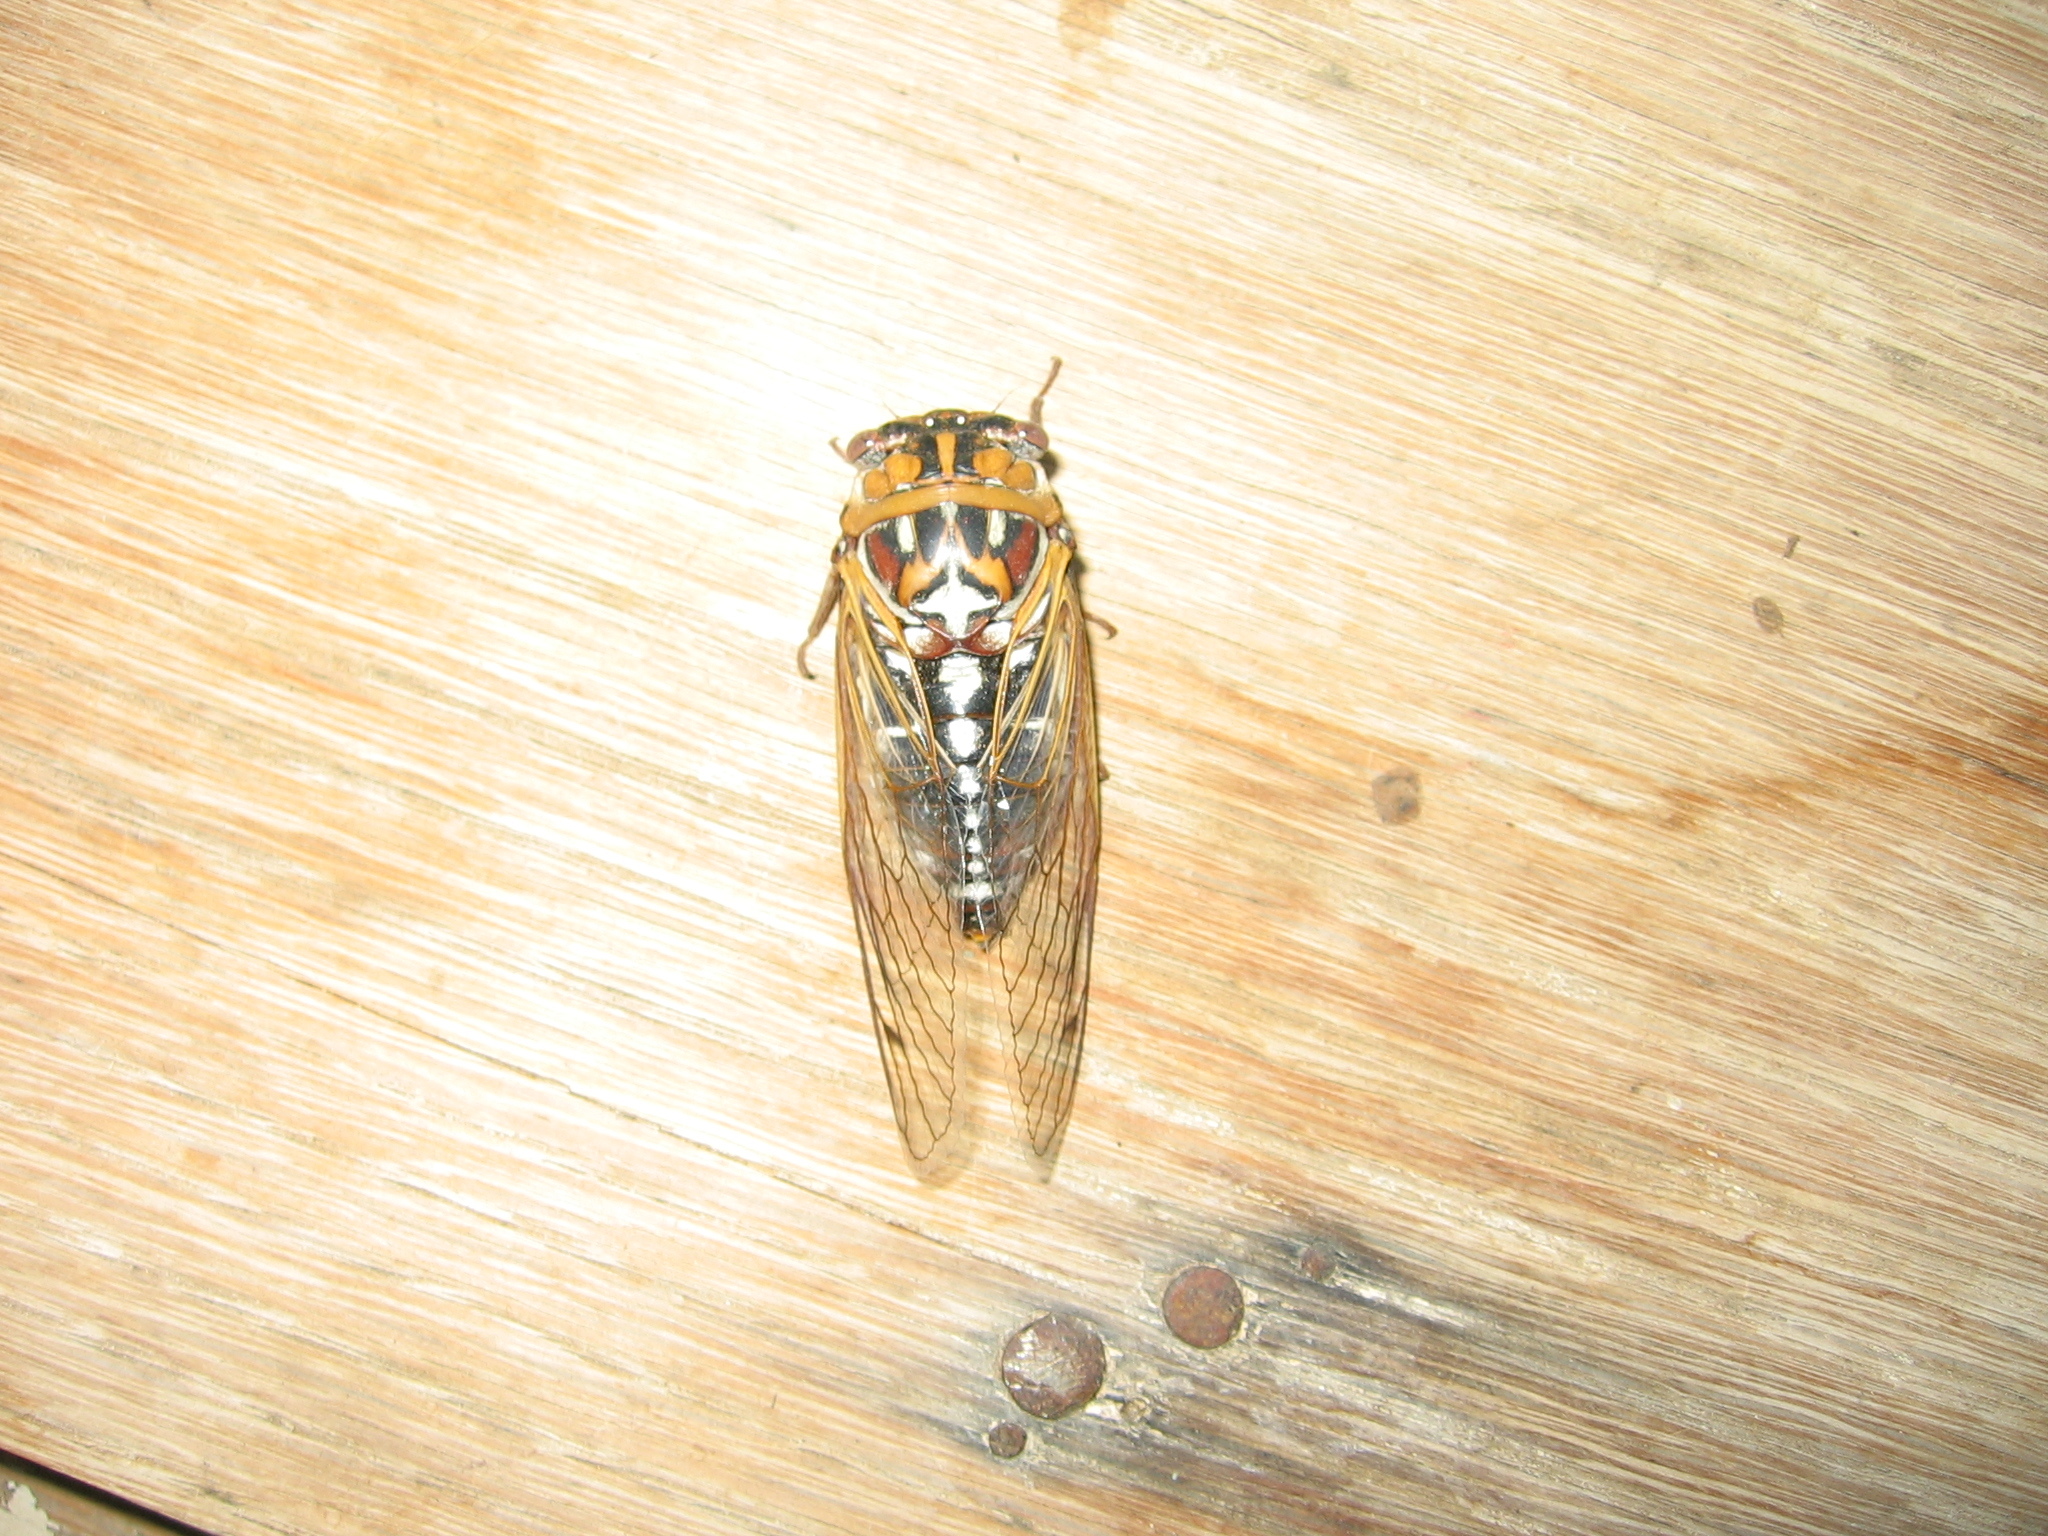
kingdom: Animalia
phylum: Arthropoda
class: Insecta
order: Hemiptera
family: Cicadidae
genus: Megatibicen
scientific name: Megatibicen tremulus
